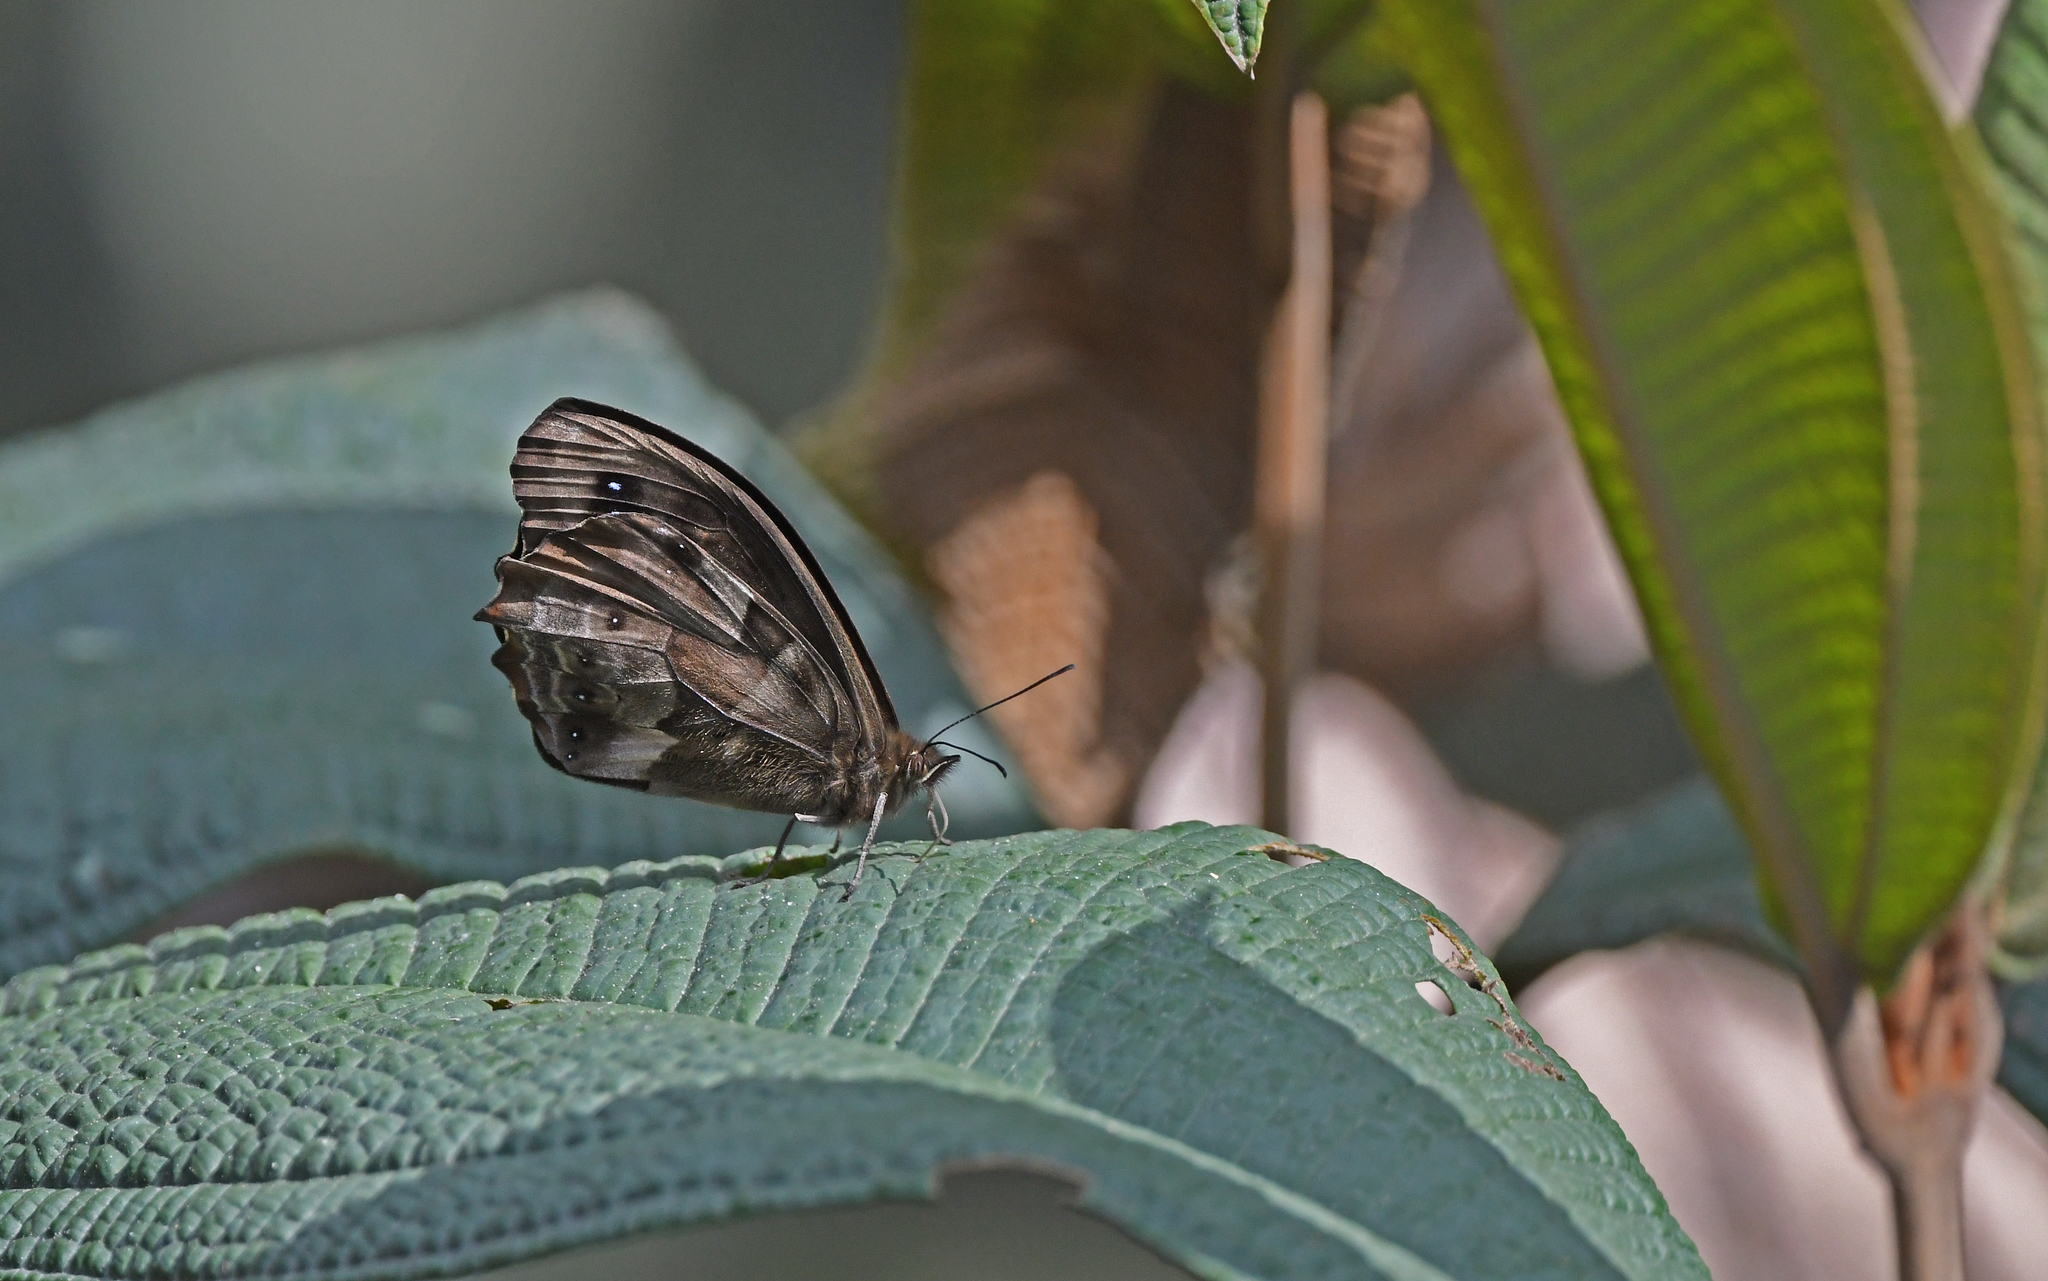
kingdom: Animalia
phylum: Arthropoda
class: Insecta
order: Lepidoptera
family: Nymphalidae
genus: Pronophila
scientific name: Pronophila cordillera
